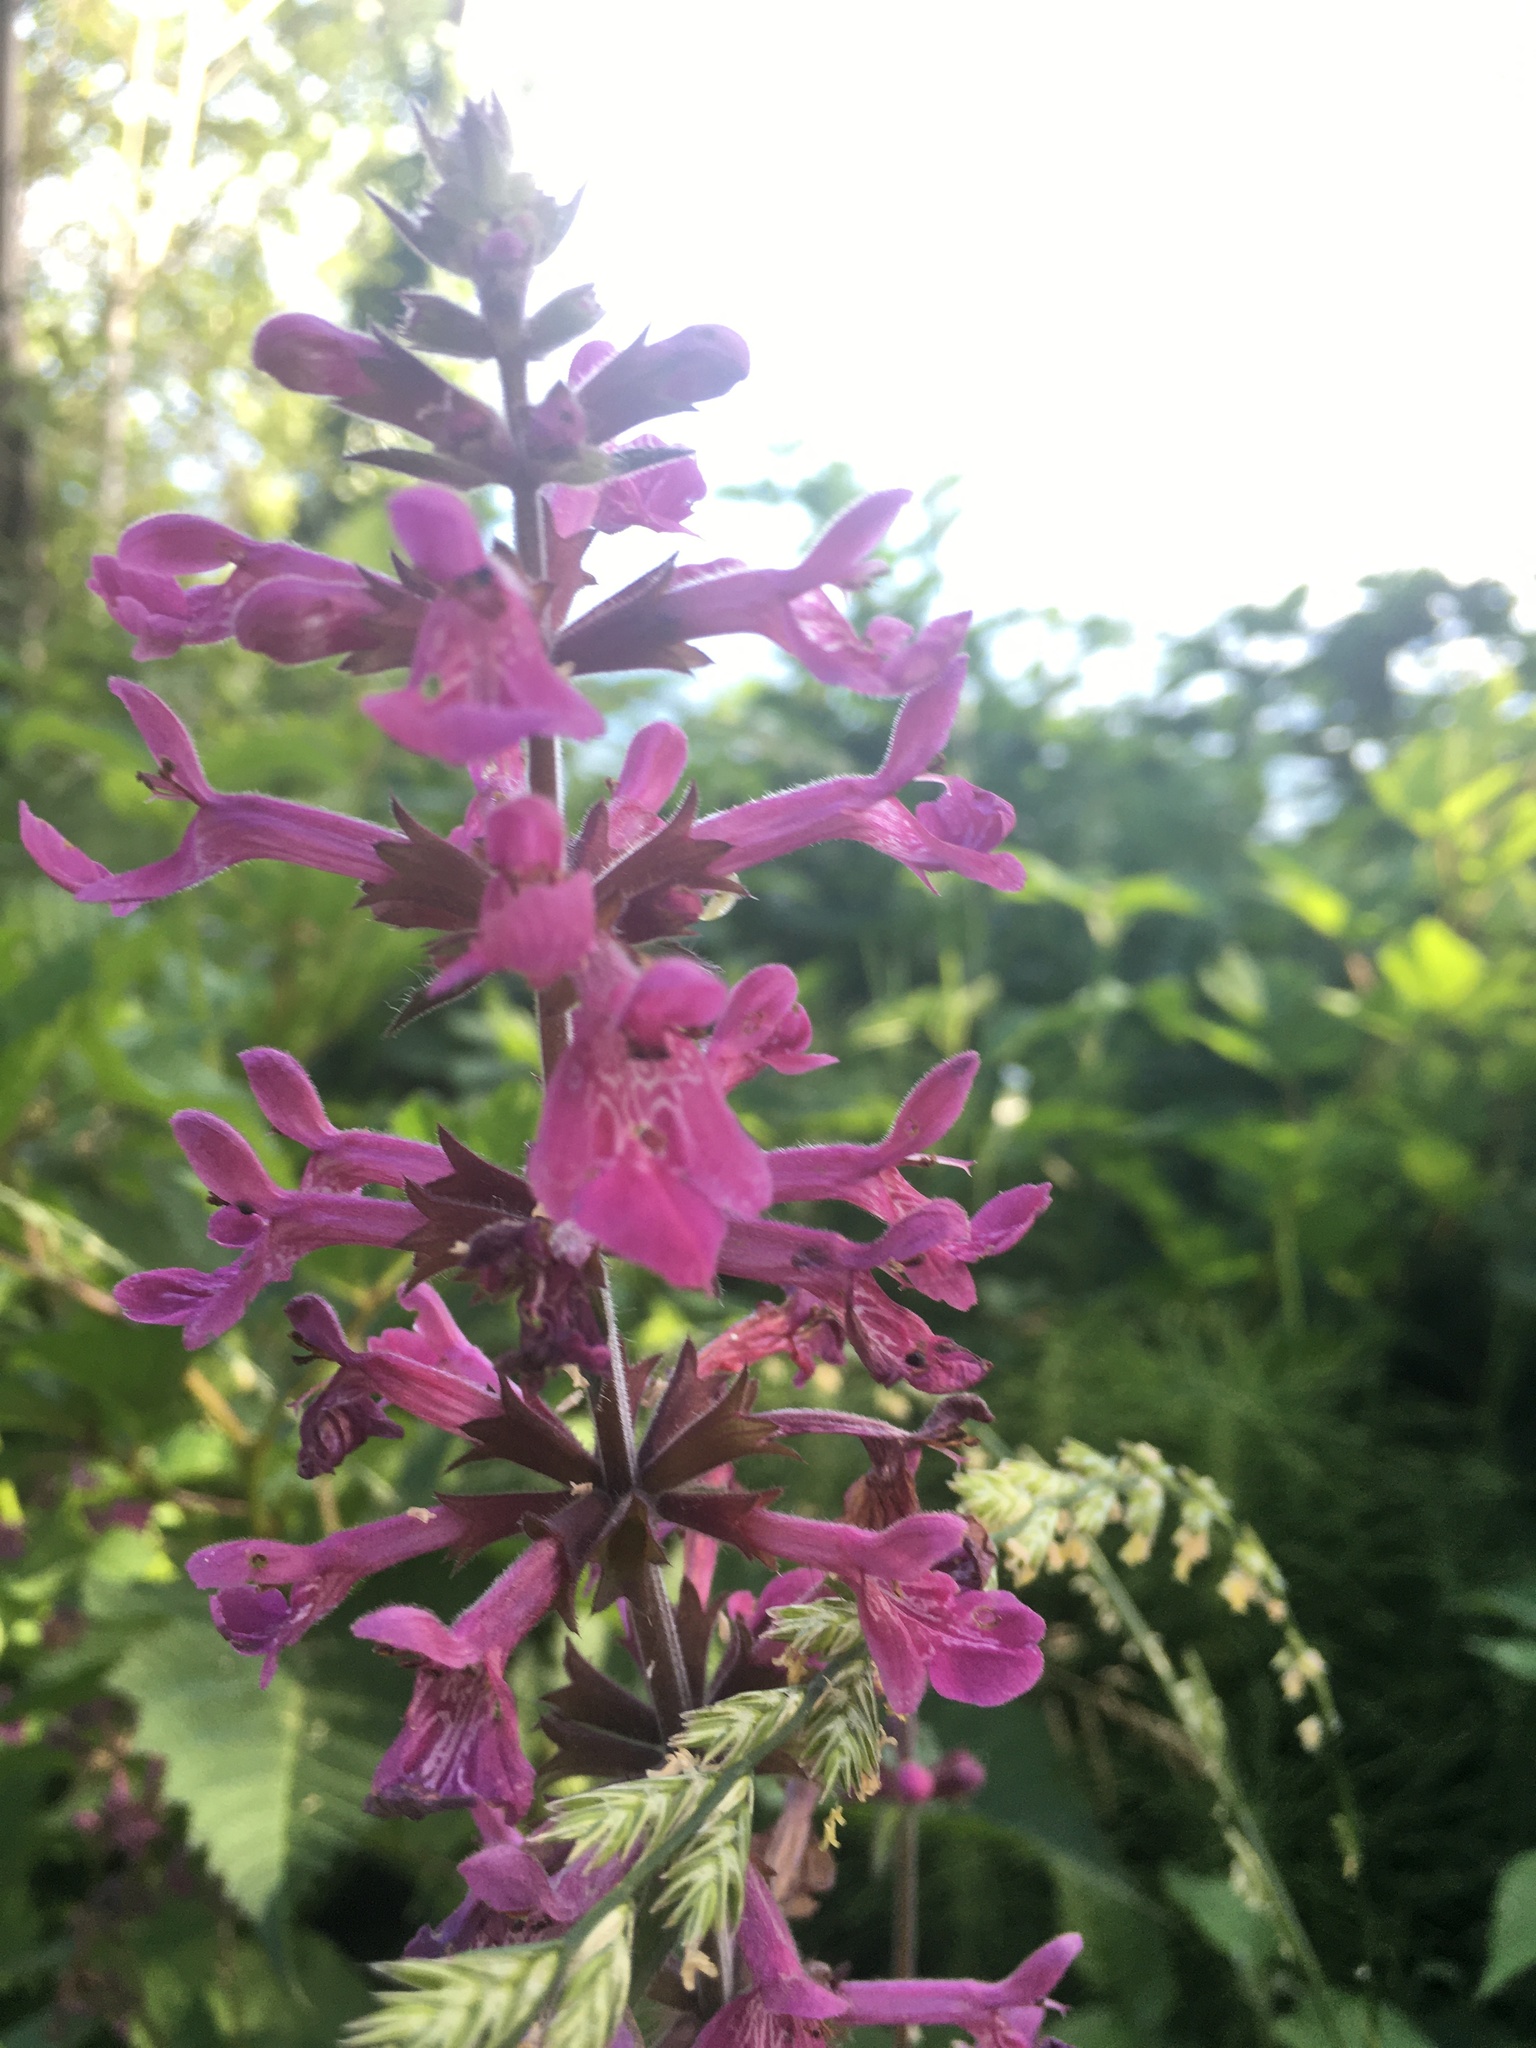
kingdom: Plantae
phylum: Tracheophyta
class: Magnoliopsida
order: Lamiales
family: Lamiaceae
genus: Stachys
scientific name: Stachys chamissonis
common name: Coastal hedge-nettle
